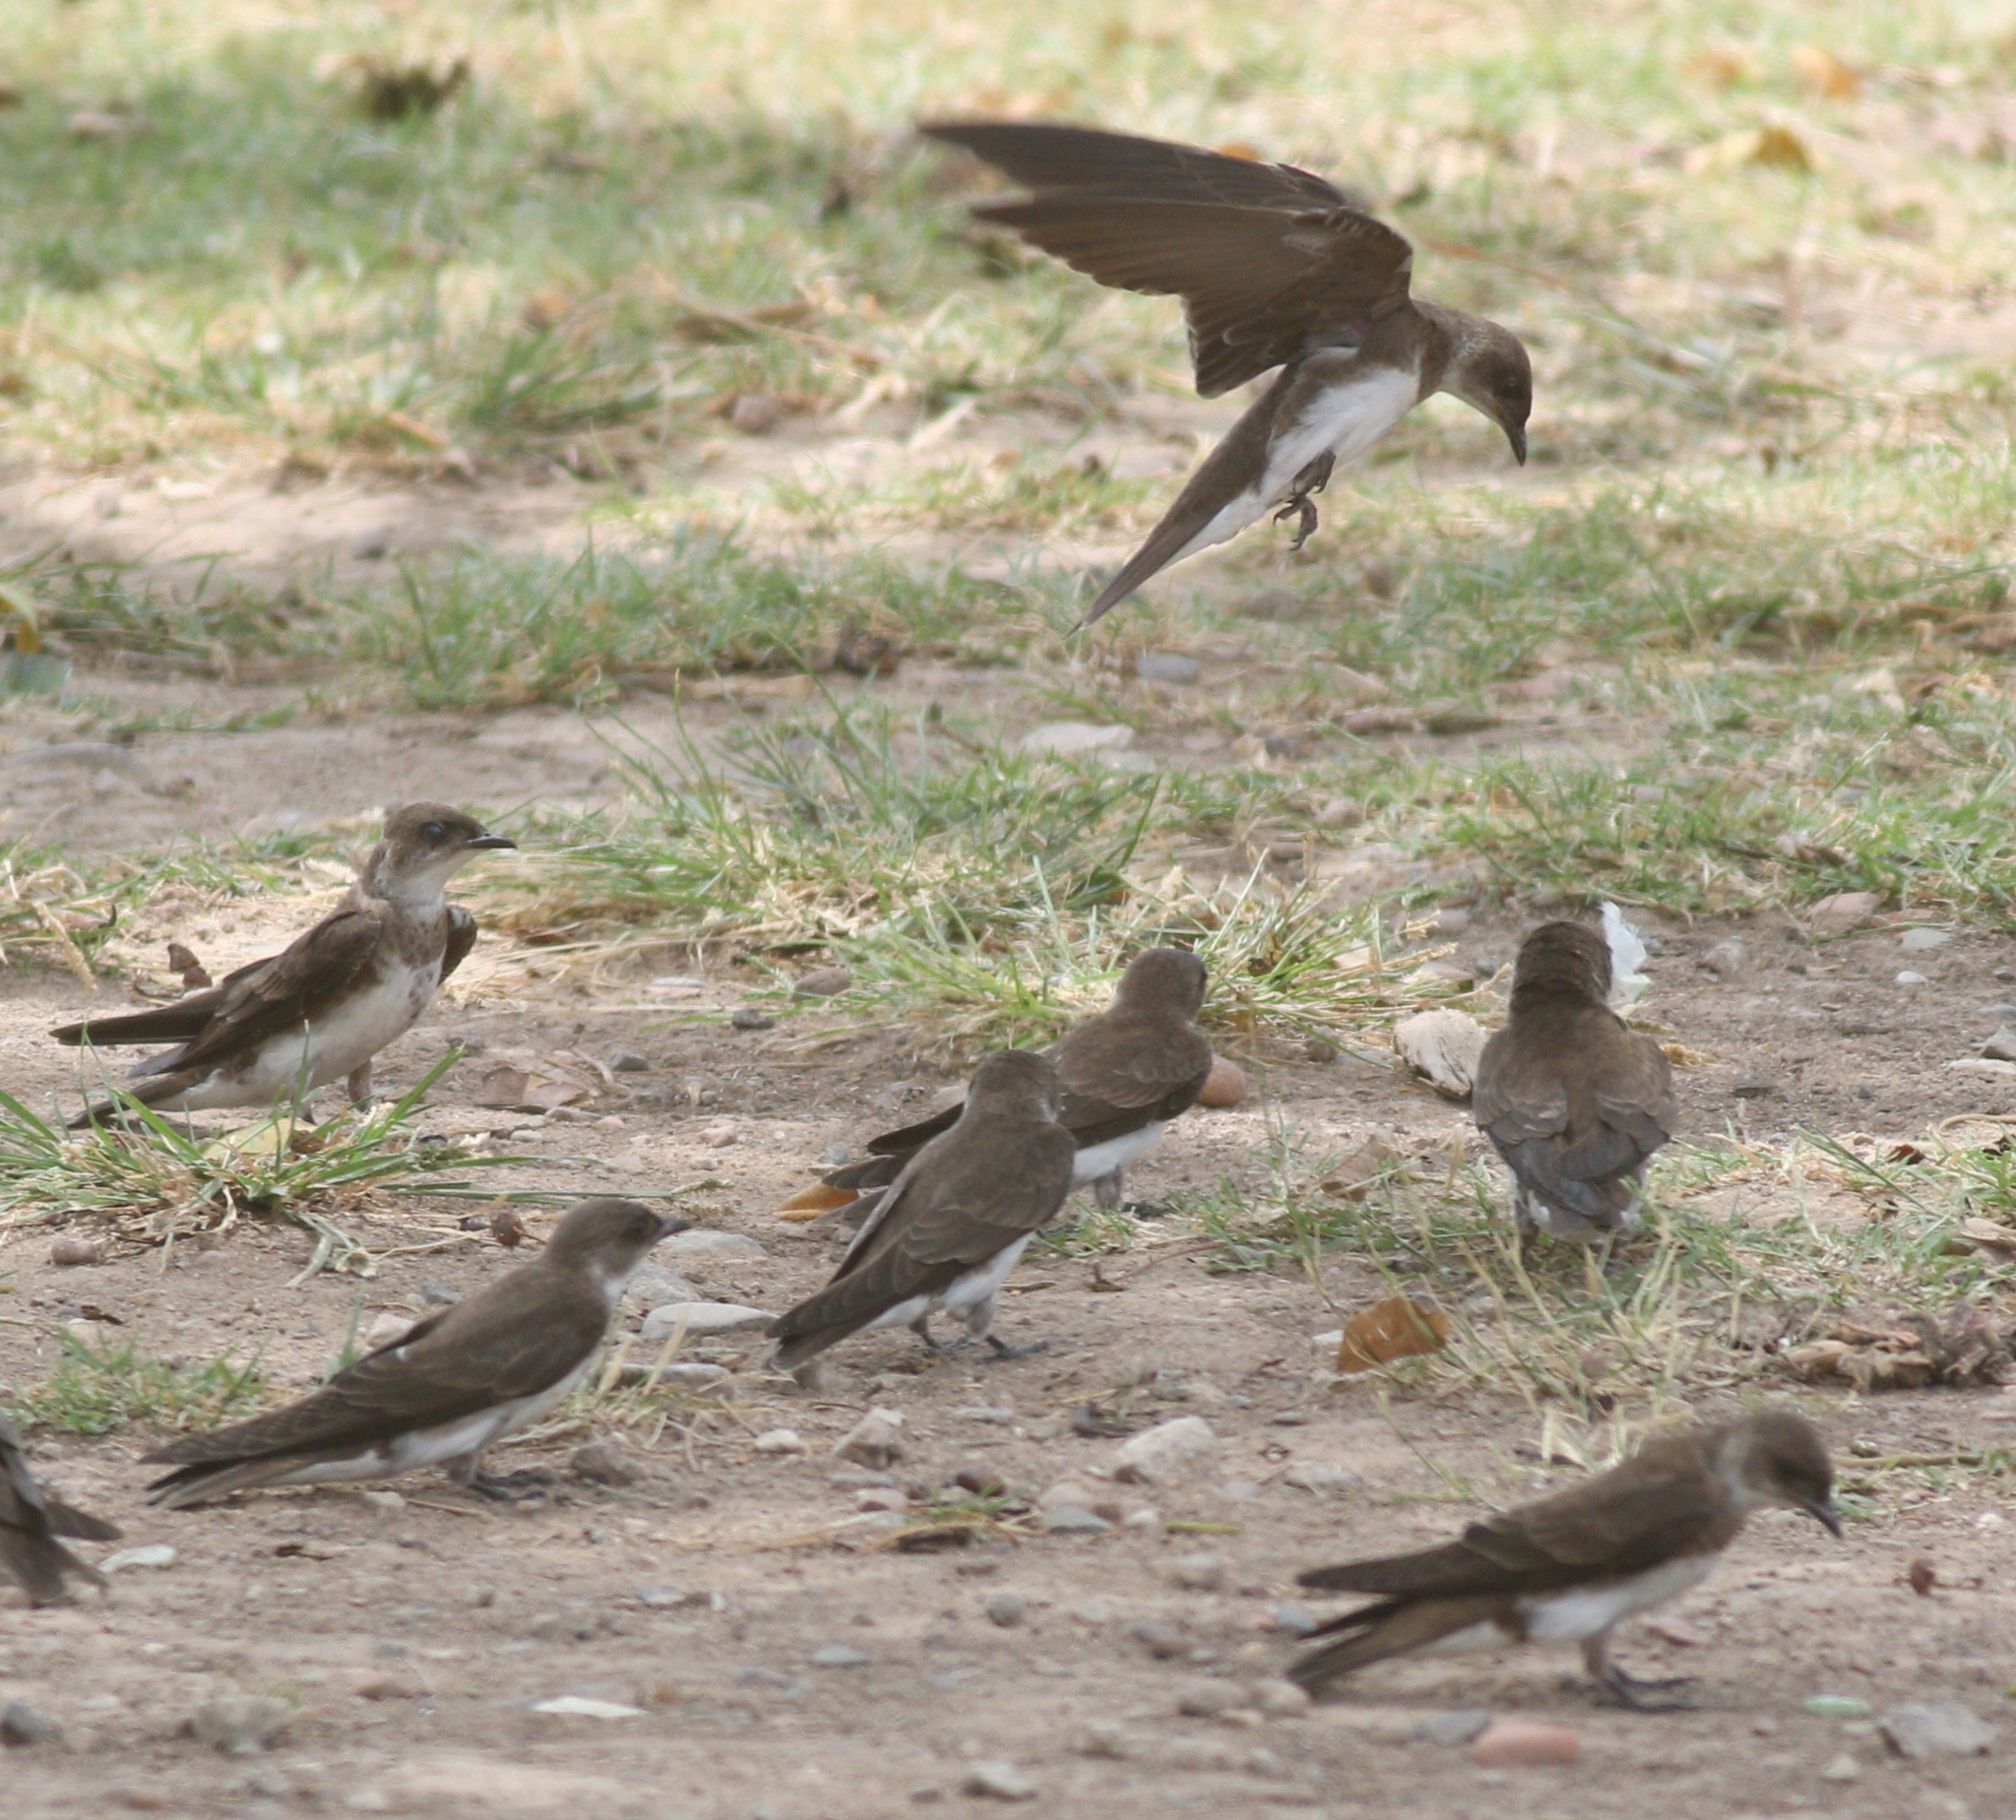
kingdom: Animalia
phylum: Chordata
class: Aves
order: Passeriformes
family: Hirundinidae
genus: Progne
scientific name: Progne tapera
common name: Brown-chested martin
